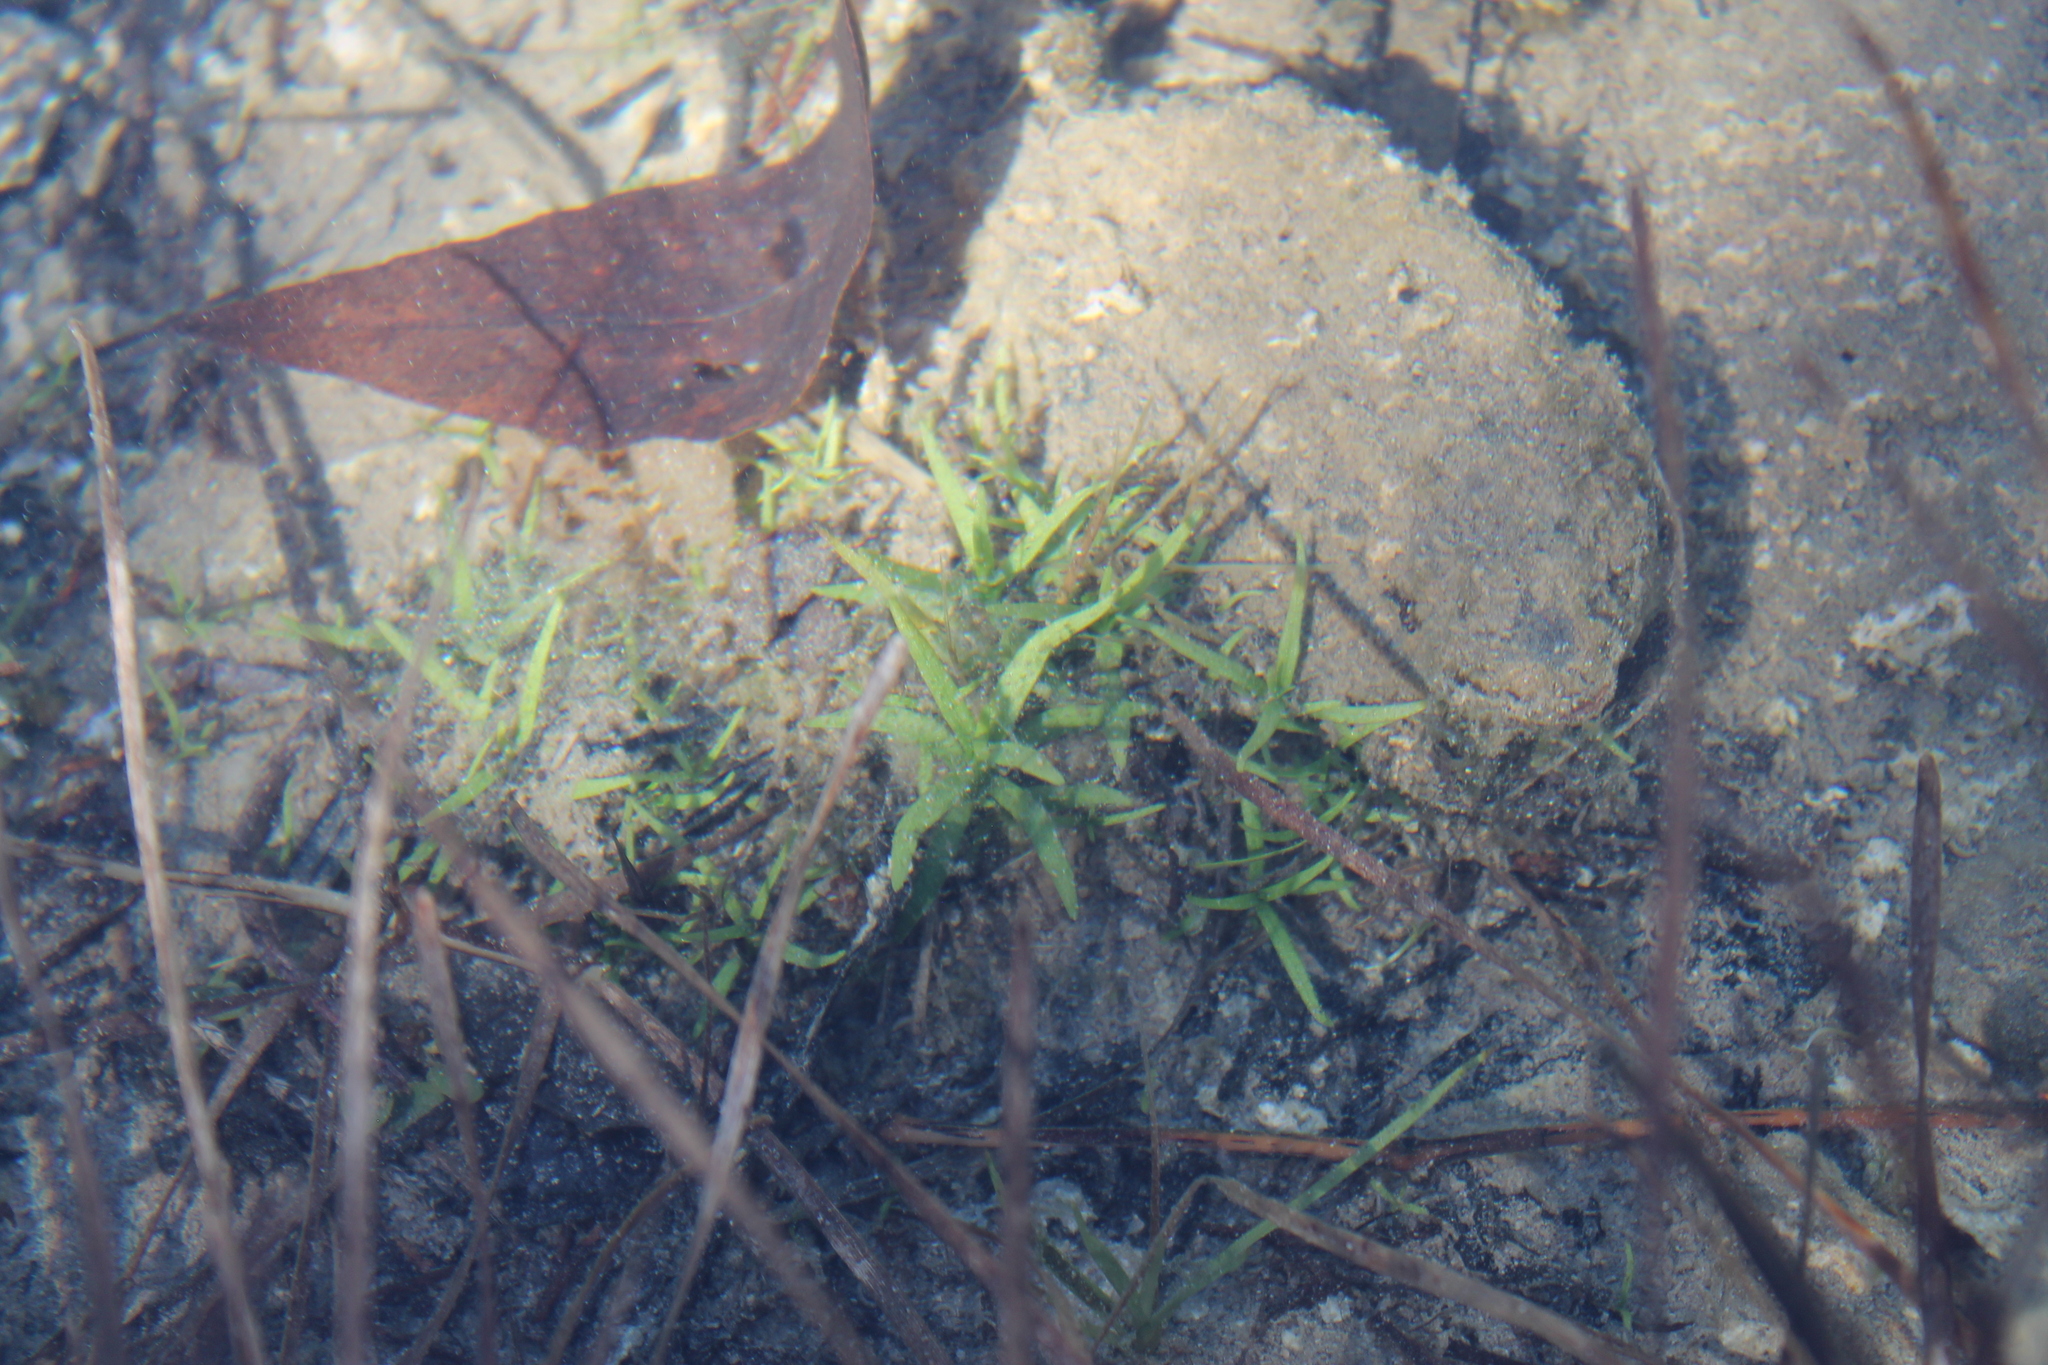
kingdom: Plantae
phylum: Tracheophyta
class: Magnoliopsida
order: Lamiales
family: Plantaginaceae
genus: Gratiola
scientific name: Gratiola quartermaniae
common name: Quarterman's hedge-hyssop
